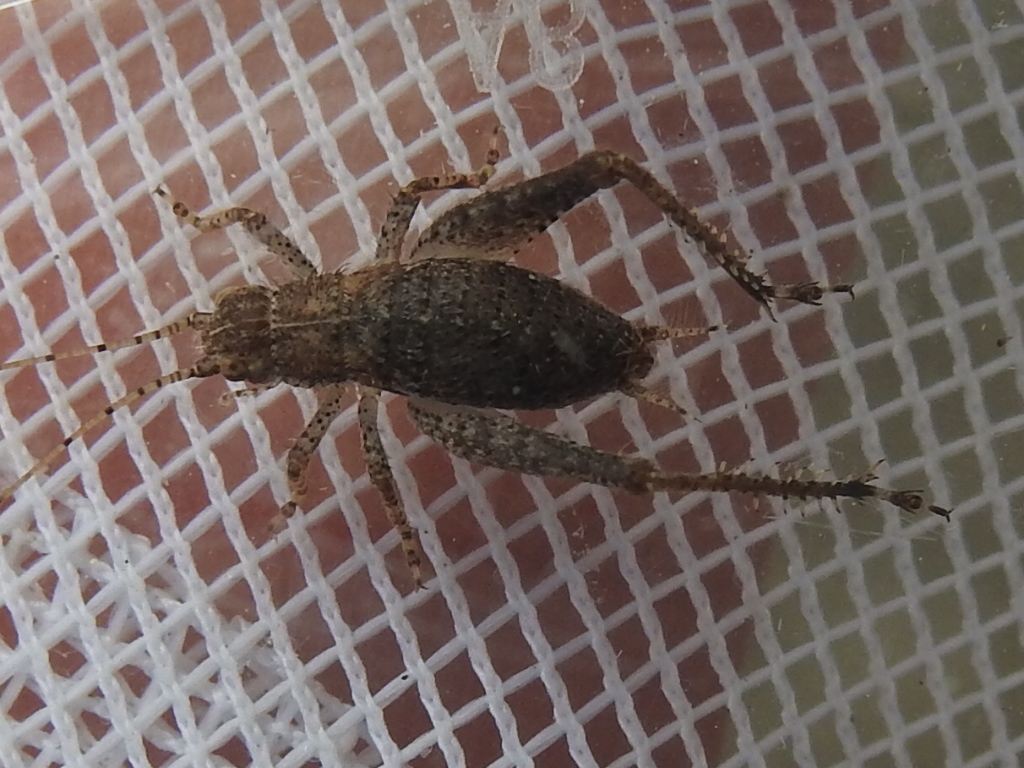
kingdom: Animalia
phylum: Arthropoda
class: Insecta
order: Orthoptera
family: Gryllidae
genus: Hapithus
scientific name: Hapithus agitator
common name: Restless bush cricket
